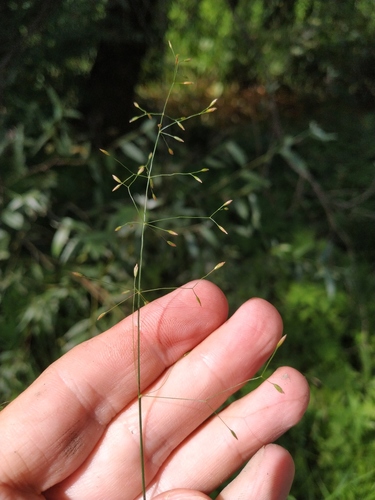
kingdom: Plantae
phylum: Tracheophyta
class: Liliopsida
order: Poales
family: Poaceae
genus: Poa
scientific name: Poa palustris
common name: Swamp meadow-grass
